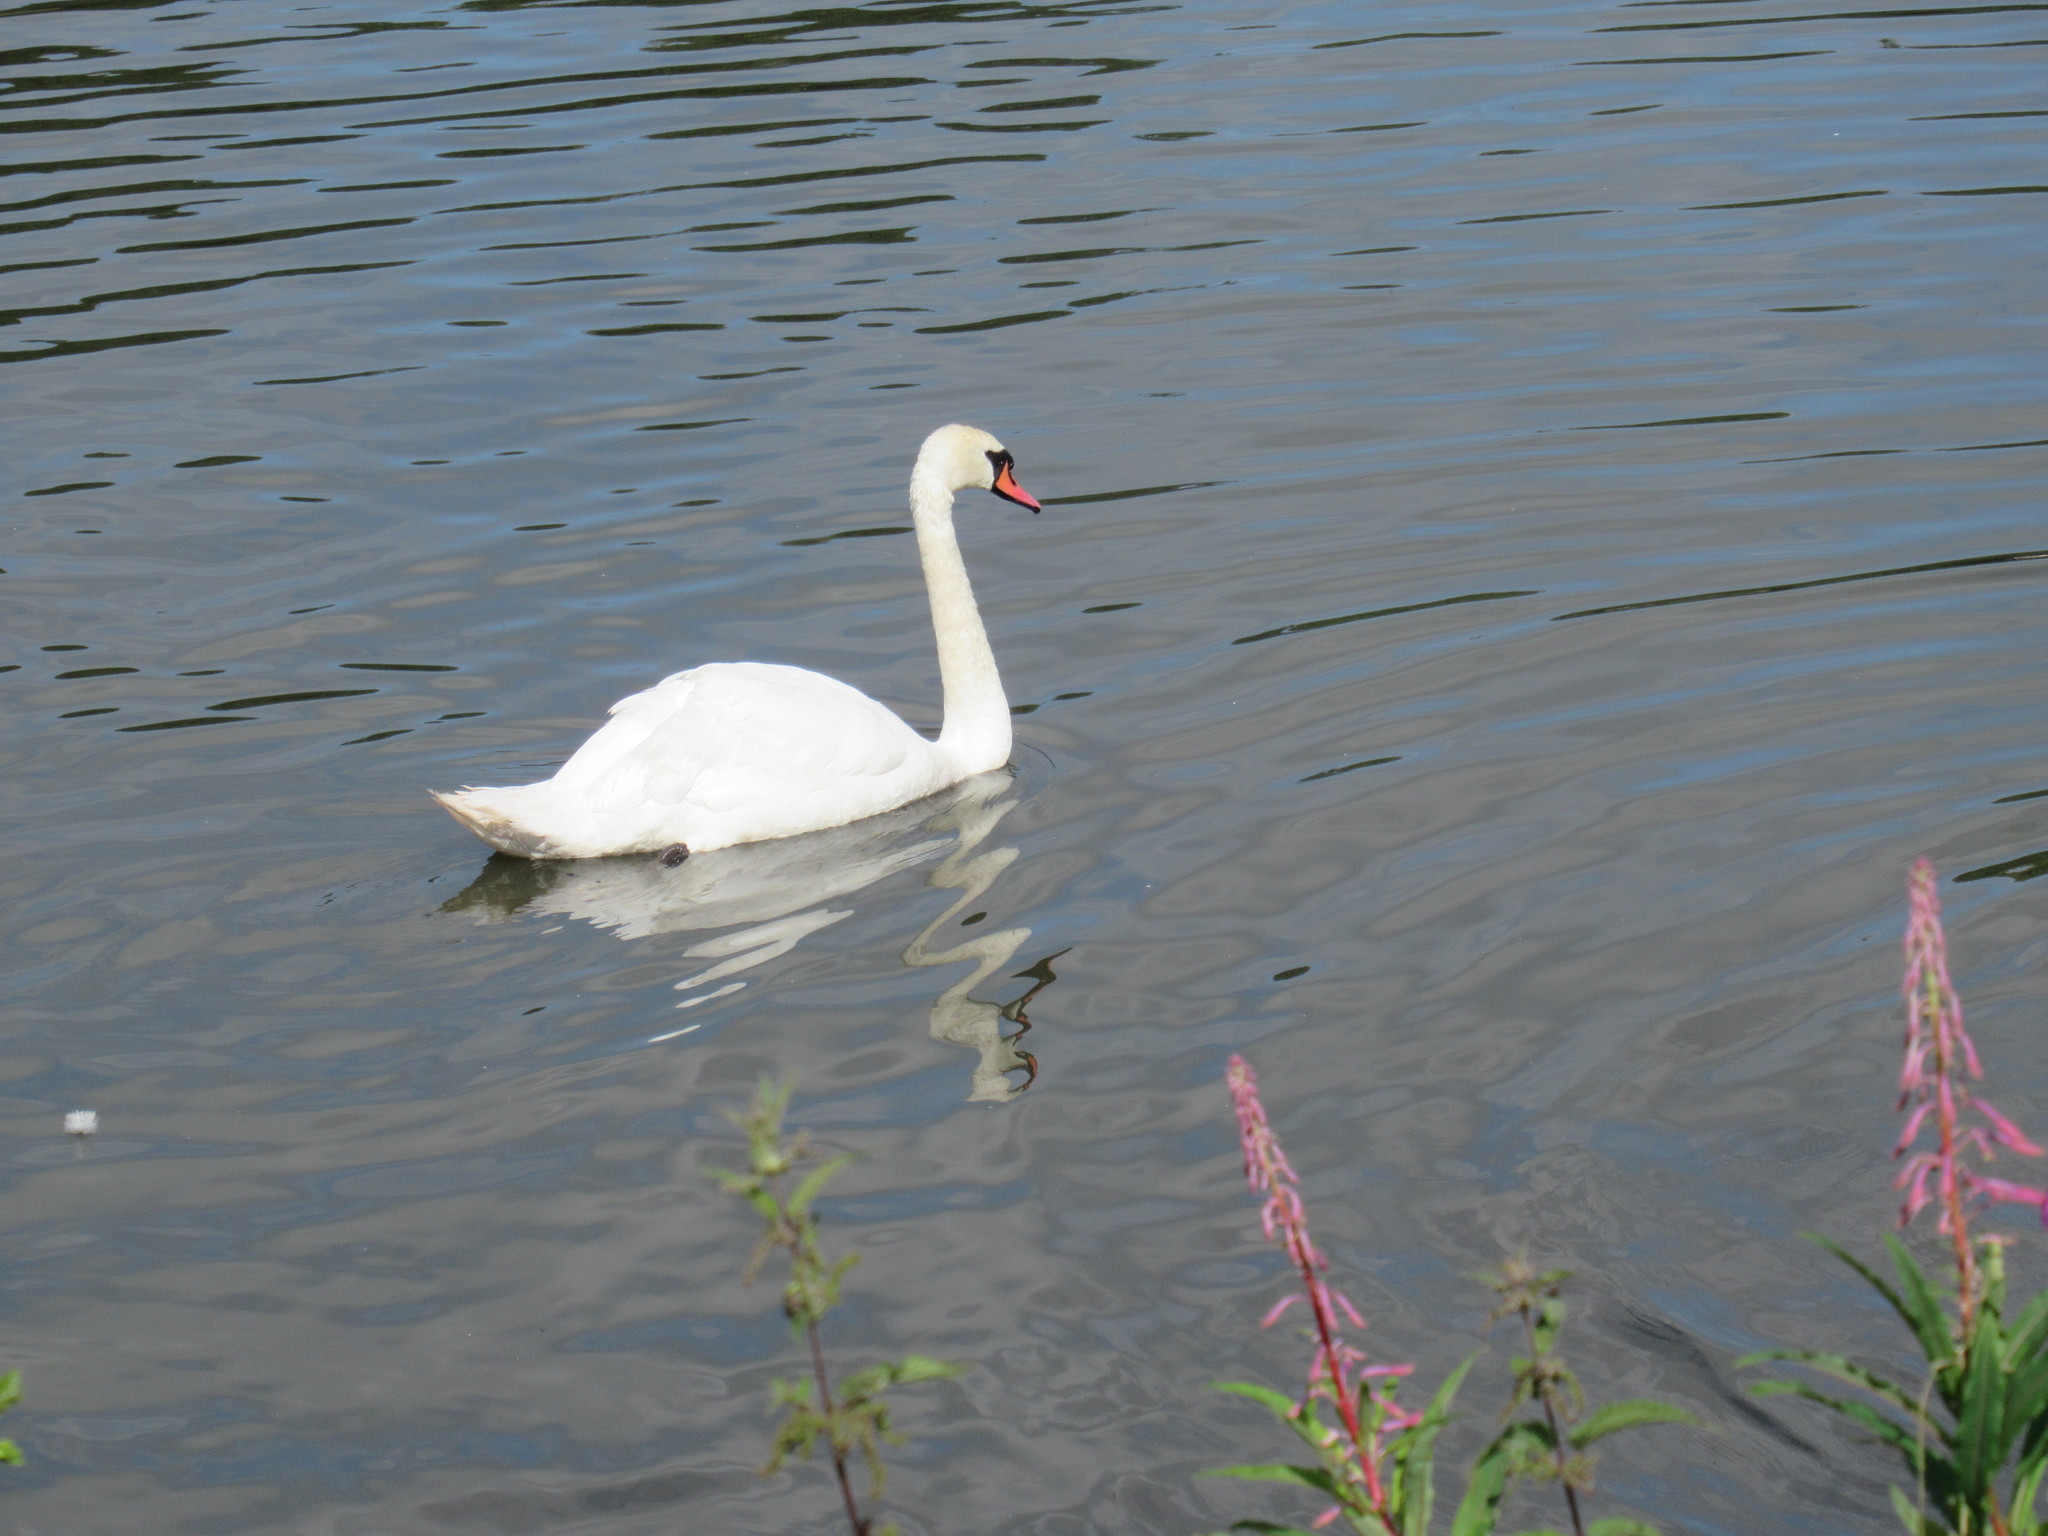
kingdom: Animalia
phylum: Chordata
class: Aves
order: Anseriformes
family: Anatidae
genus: Cygnus
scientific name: Cygnus olor
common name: Mute swan
